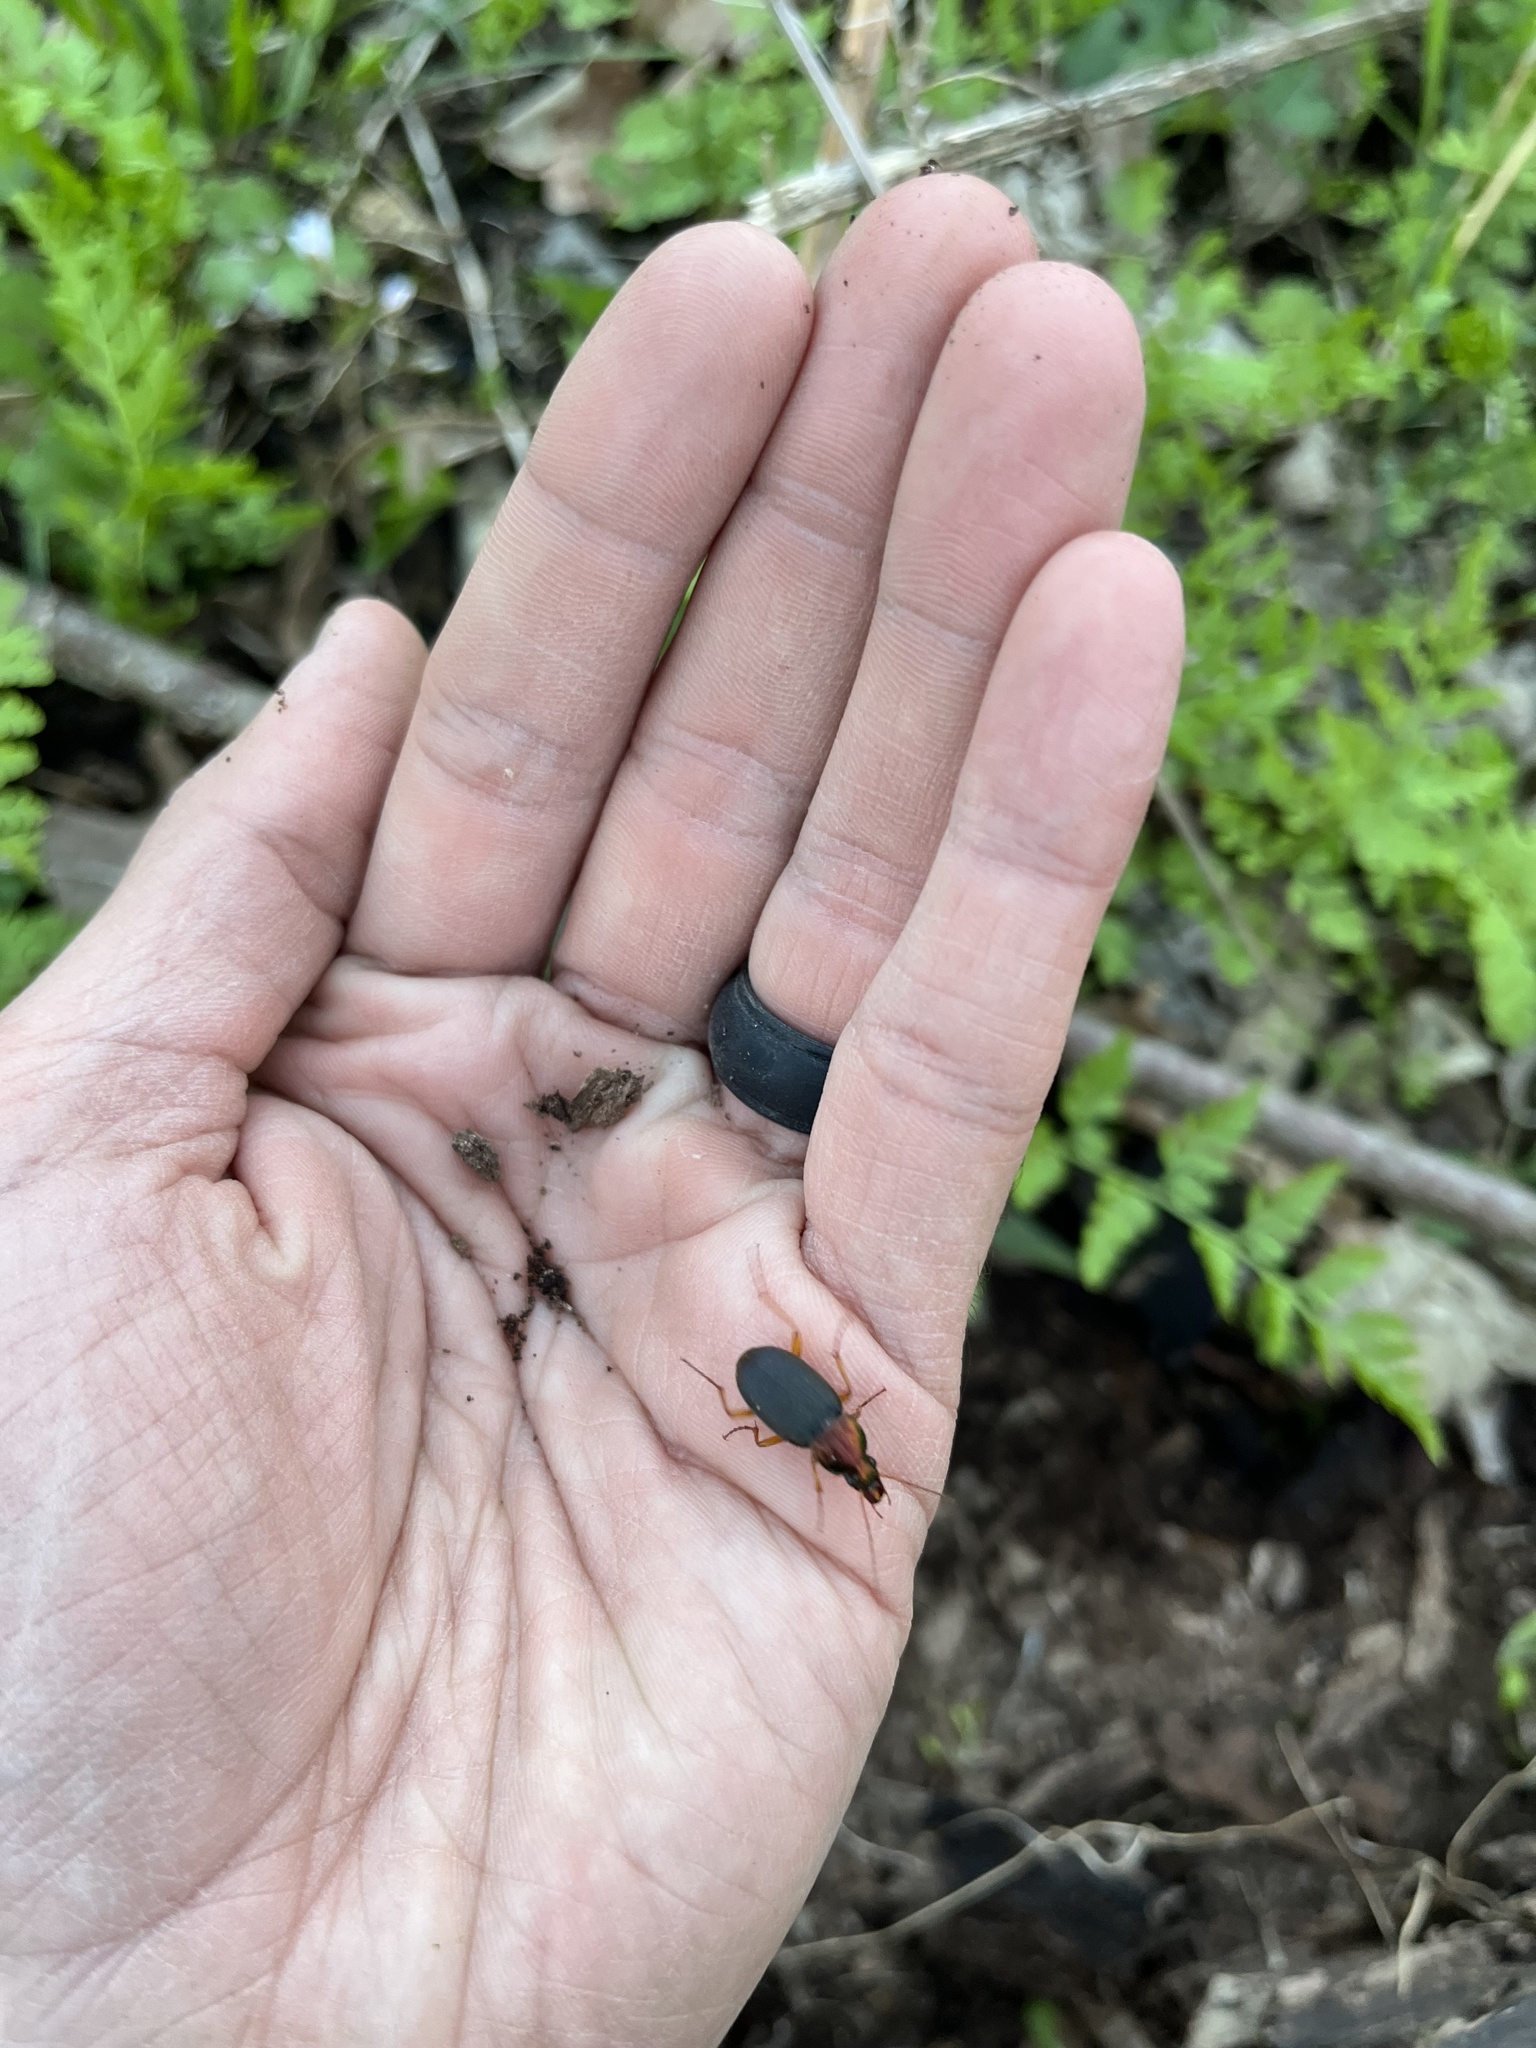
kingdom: Animalia
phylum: Arthropoda
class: Insecta
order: Coleoptera
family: Carabidae
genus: Chlaenius
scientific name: Chlaenius emarginatus
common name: Emarginate chlaenius
